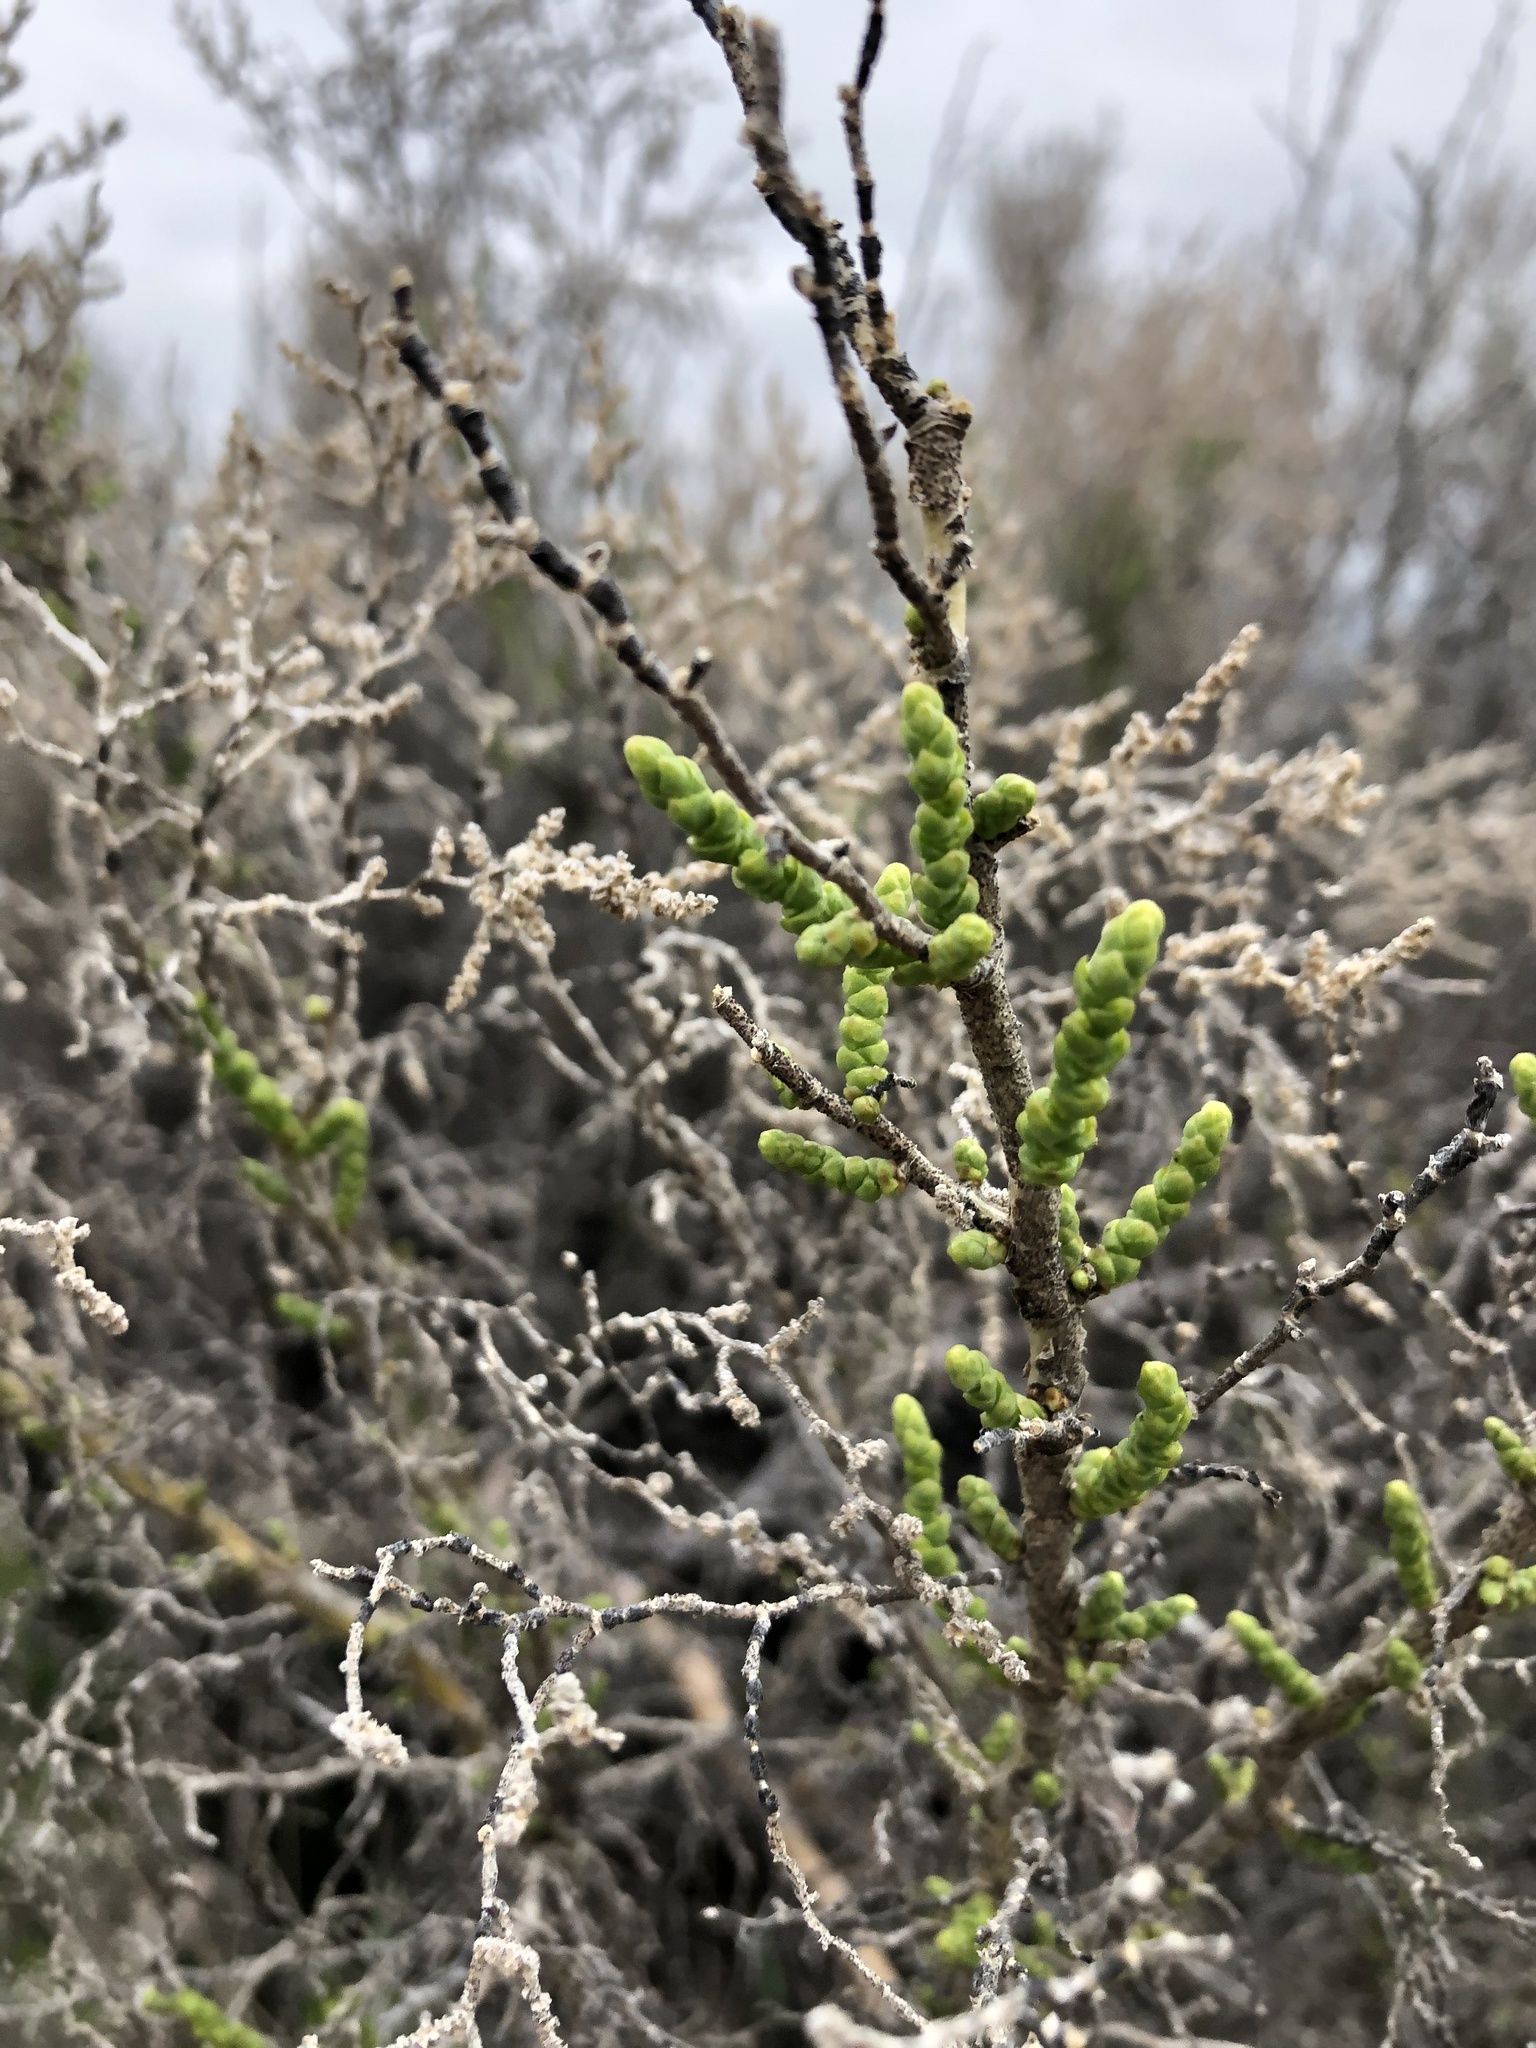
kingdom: Plantae
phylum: Tracheophyta
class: Magnoliopsida
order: Caryophyllales
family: Amaranthaceae
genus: Allenrolfea
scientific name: Allenrolfea occidentalis
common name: Iodine-bush
